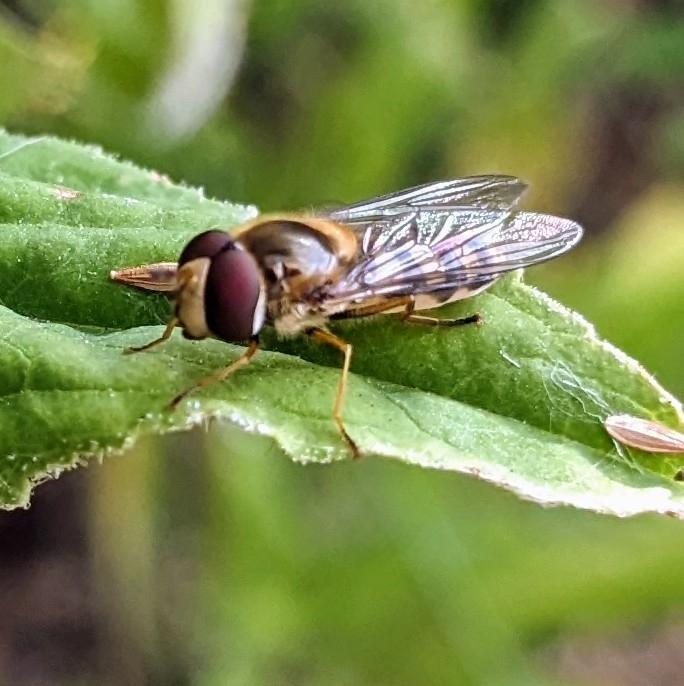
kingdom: Animalia
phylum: Arthropoda
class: Insecta
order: Diptera
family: Syrphidae
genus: Eupeodes
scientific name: Eupeodes
